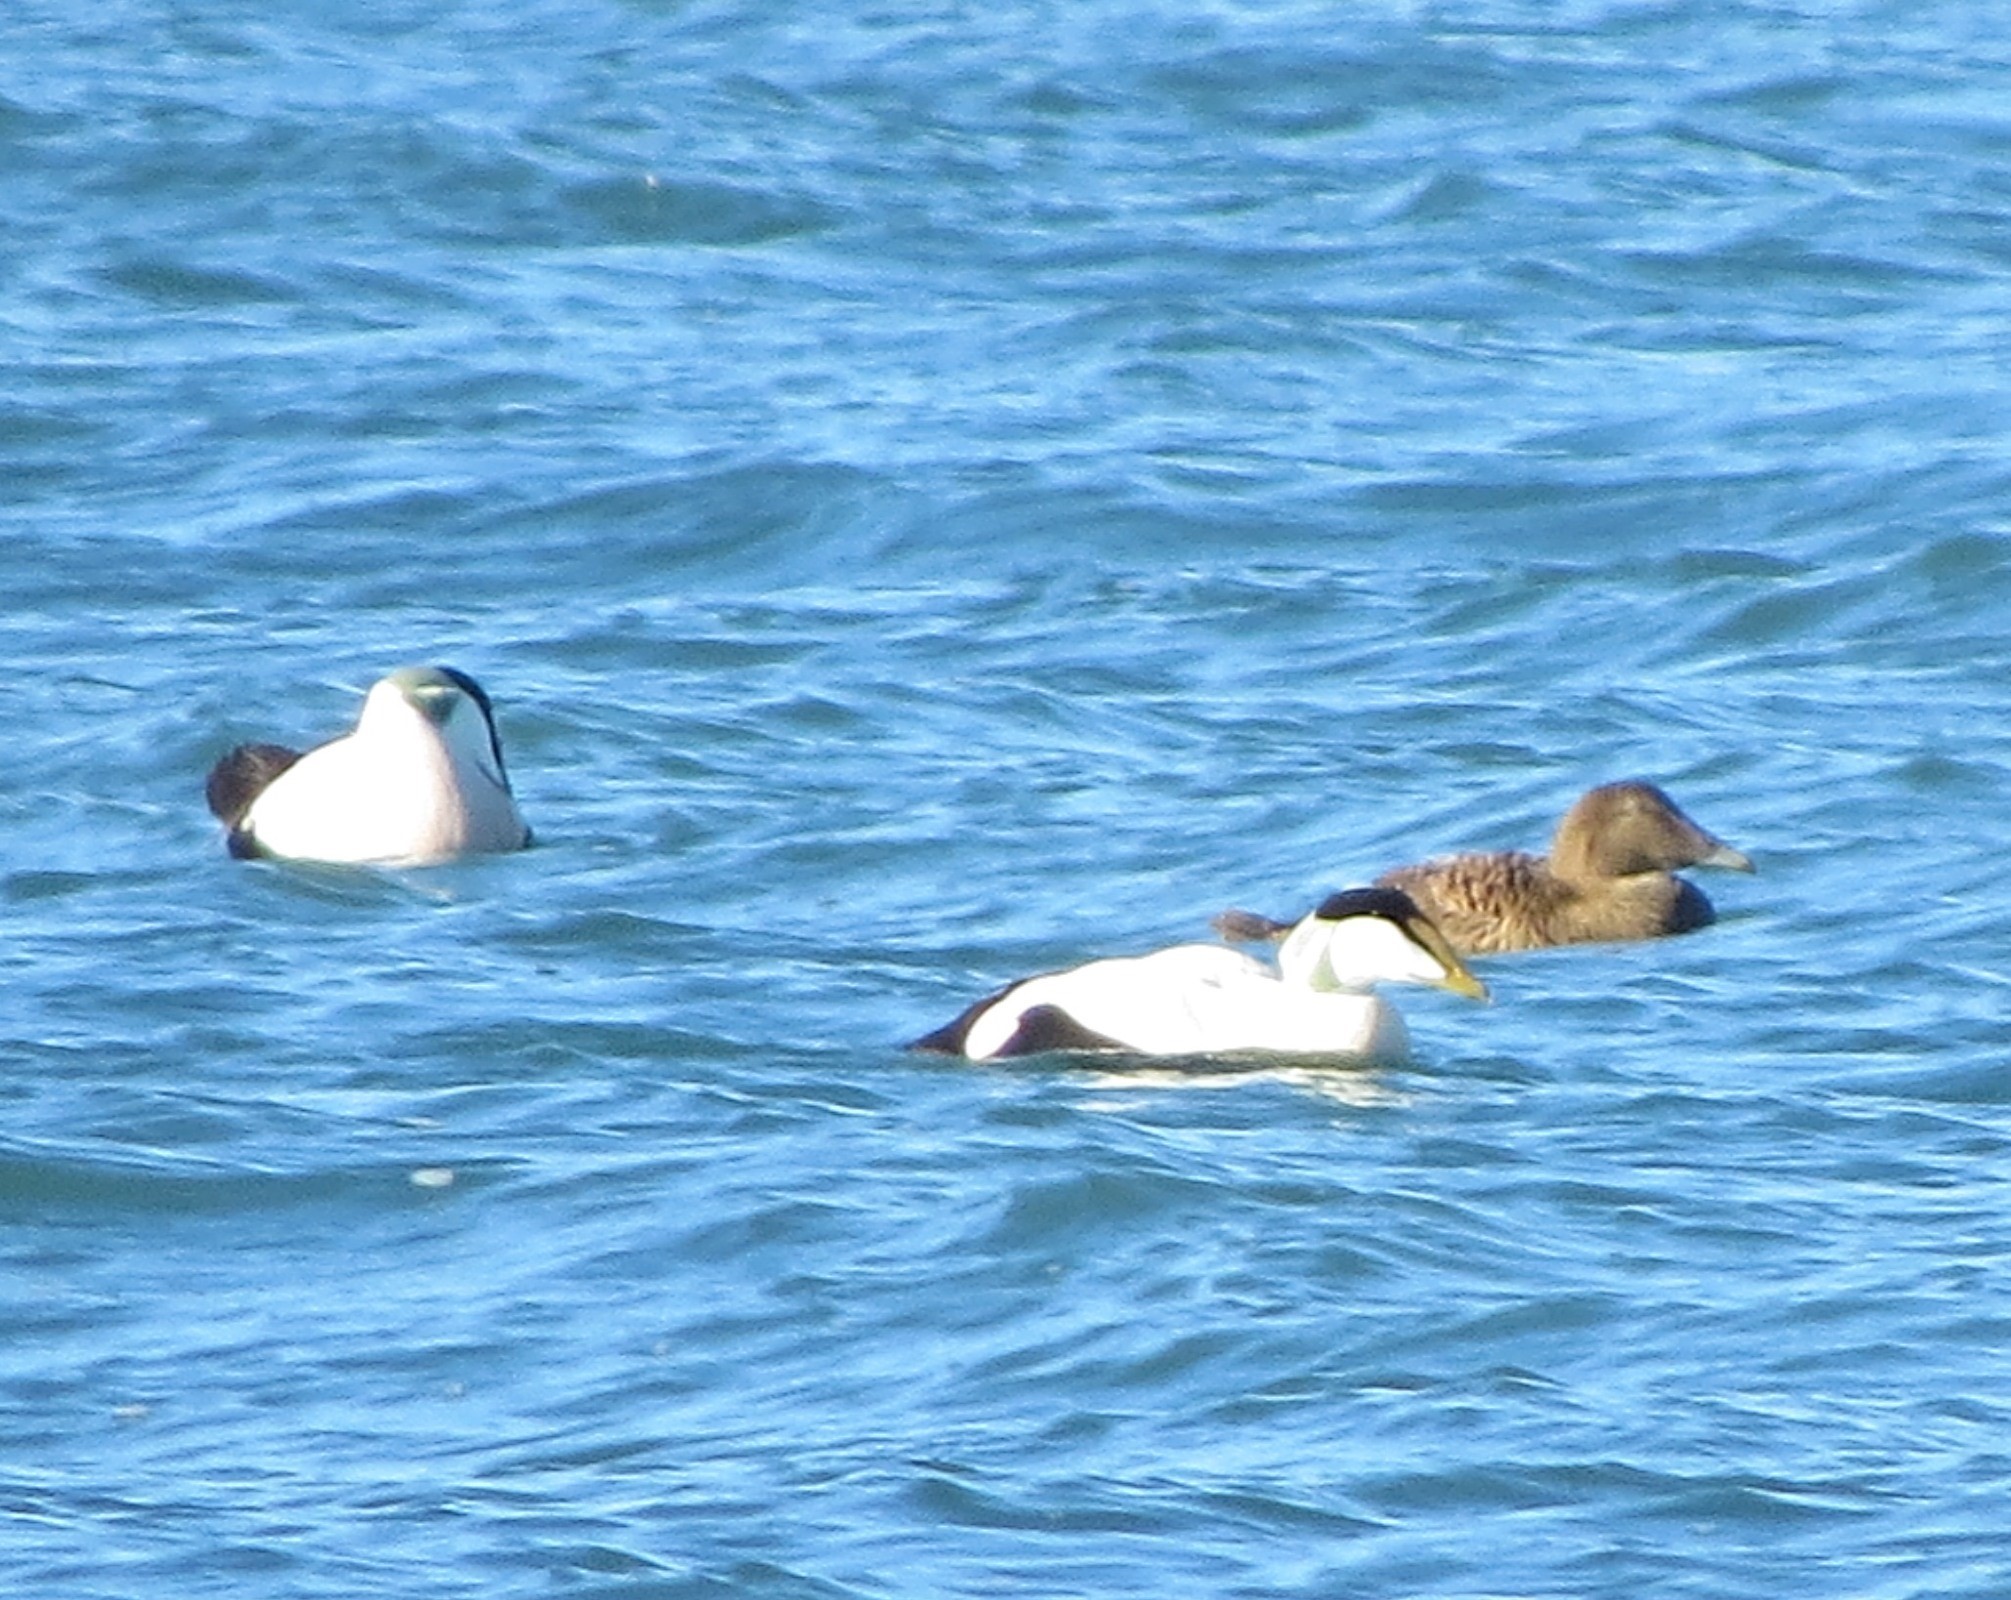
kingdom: Animalia
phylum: Chordata
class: Aves
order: Anseriformes
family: Anatidae
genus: Somateria
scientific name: Somateria mollissima
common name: Common eider
